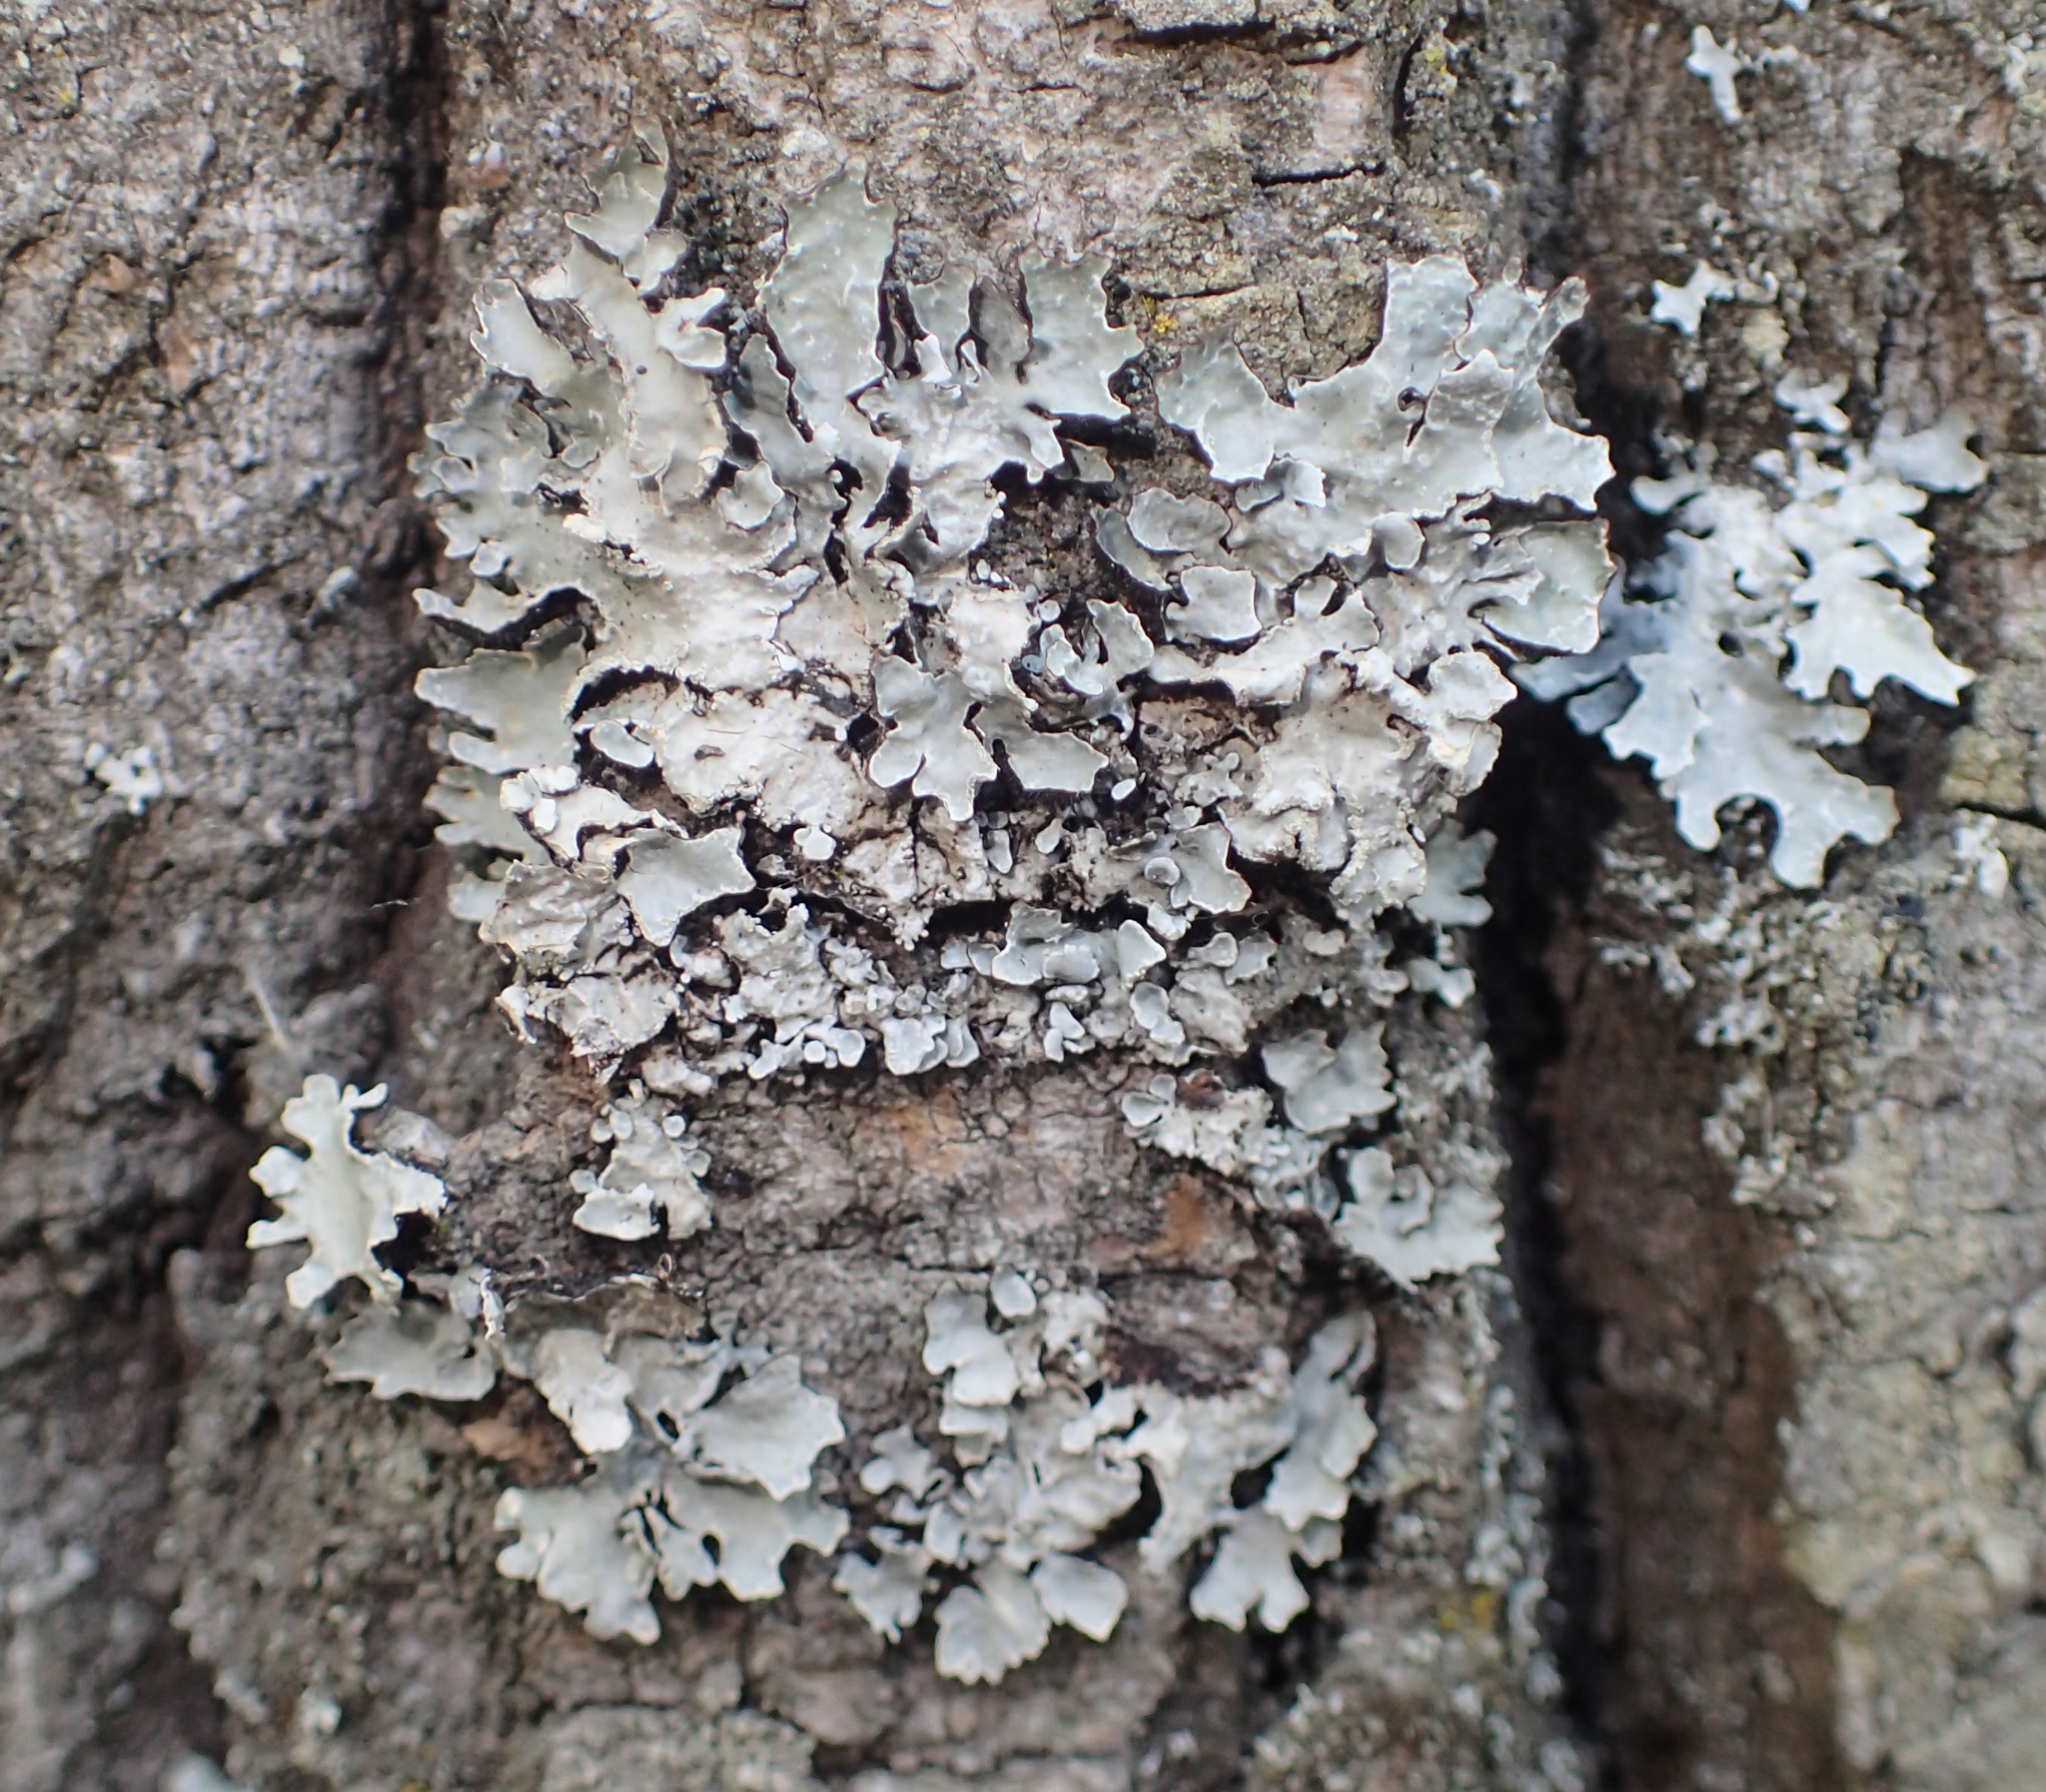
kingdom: Fungi
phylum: Ascomycota
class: Lecanoromycetes
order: Lecanorales
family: Parmeliaceae
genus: Parmelia
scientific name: Parmelia sulcata
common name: Netted shield lichen
